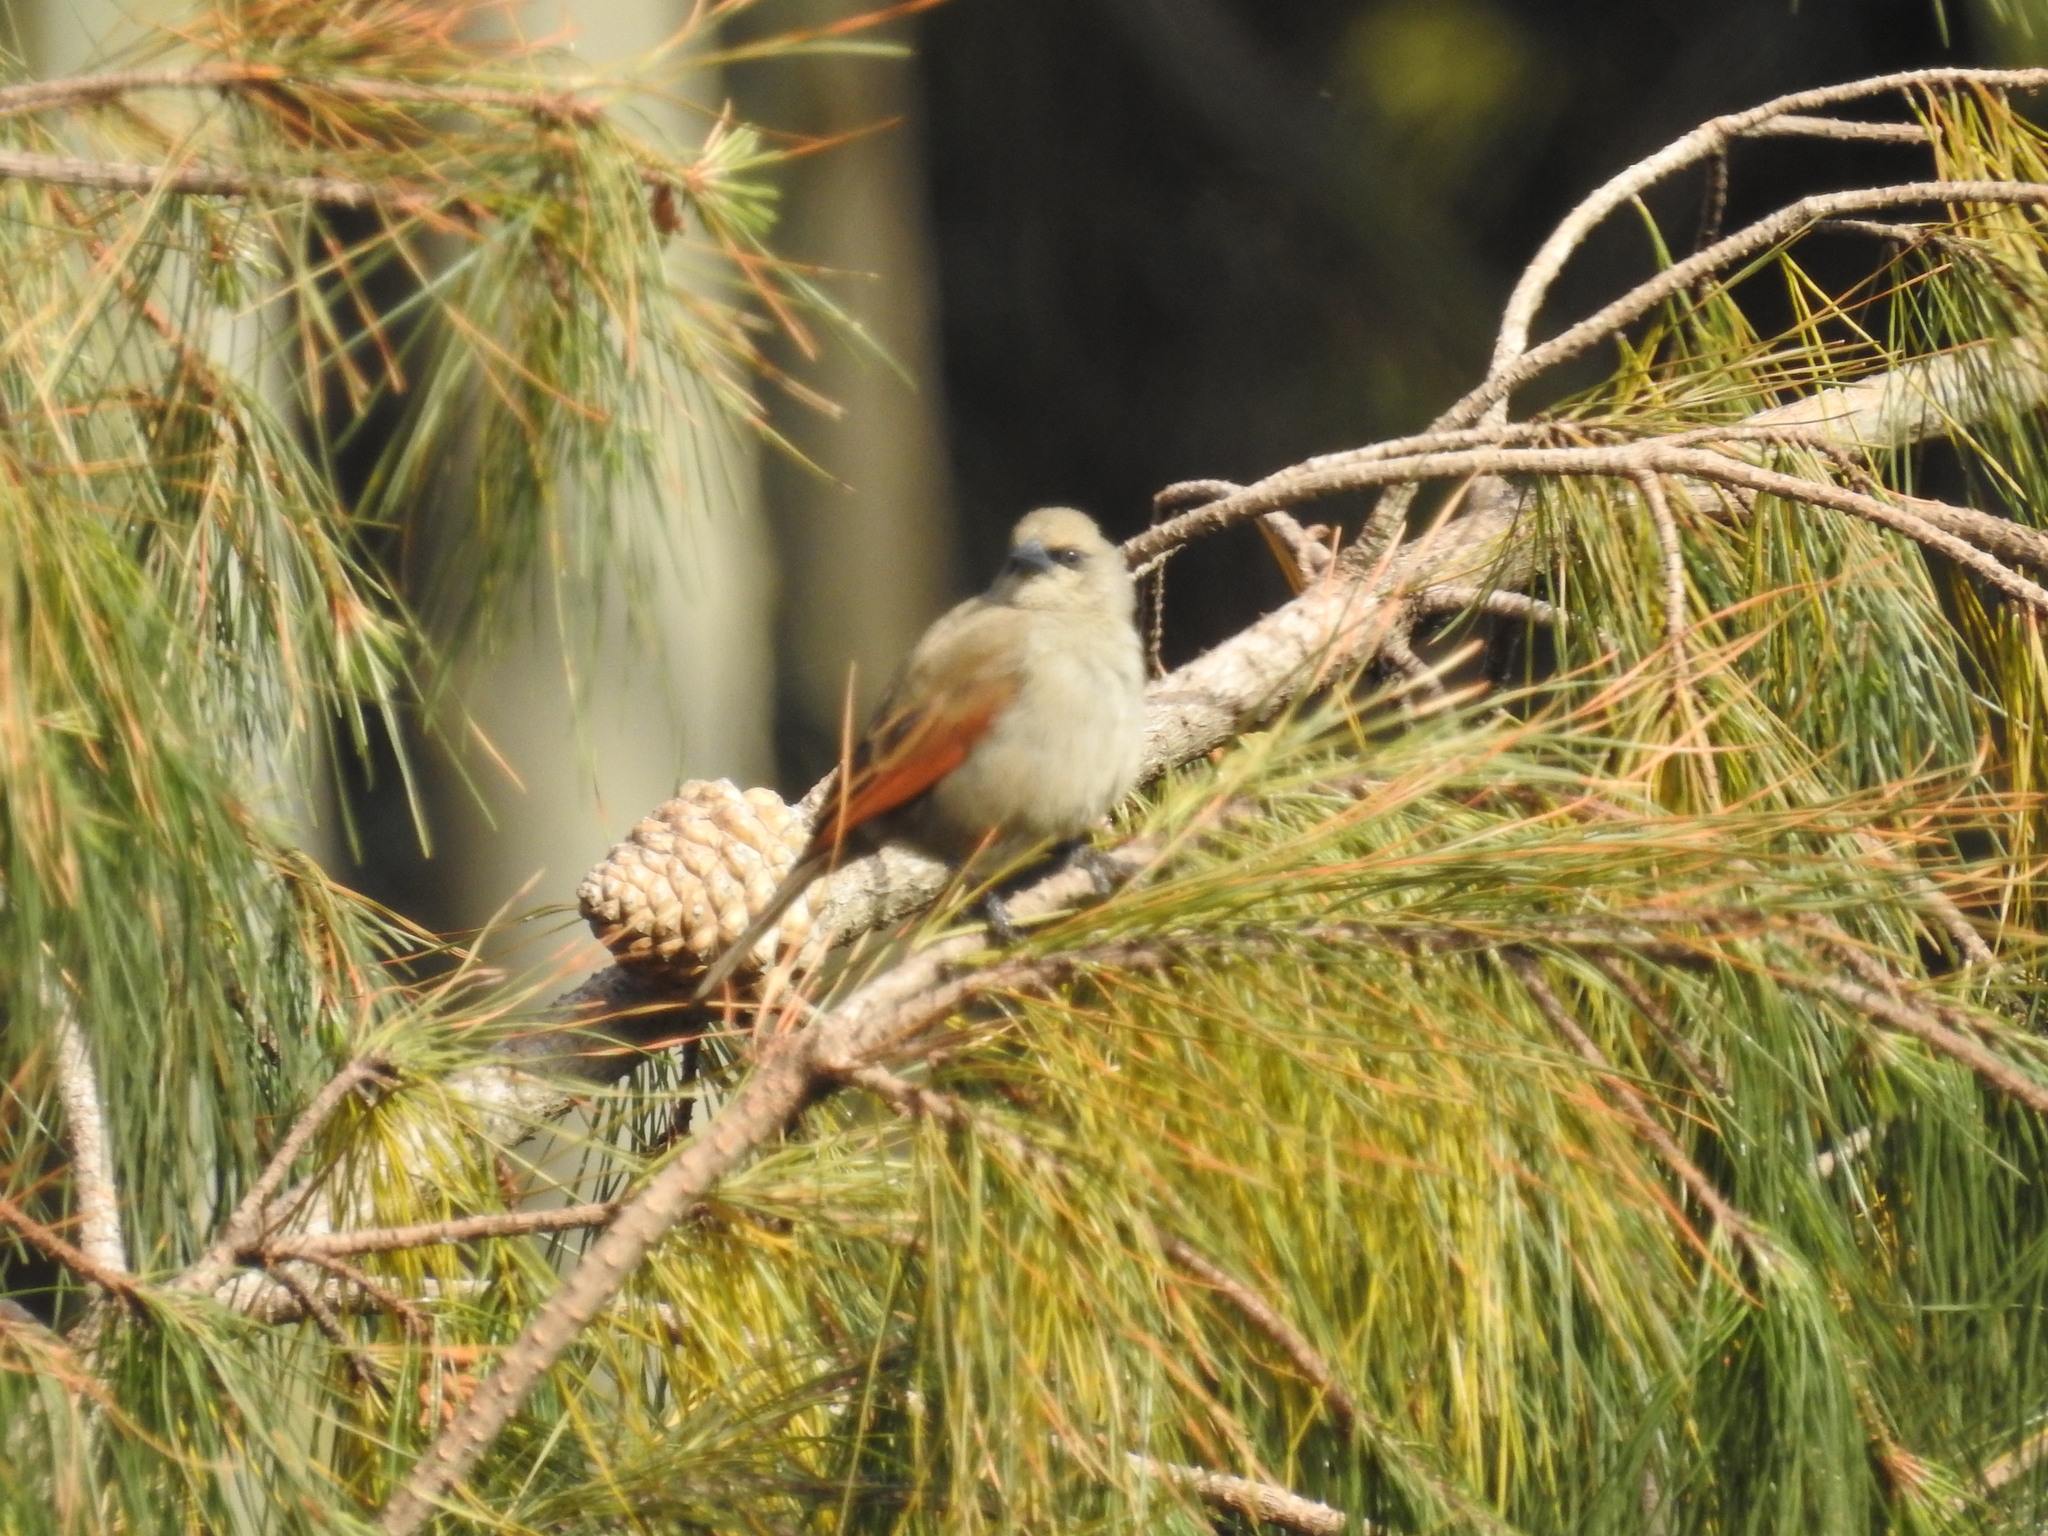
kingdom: Animalia
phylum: Chordata
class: Aves
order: Passeriformes
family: Icteridae
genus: Agelaioides
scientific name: Agelaioides badius
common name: Baywing
